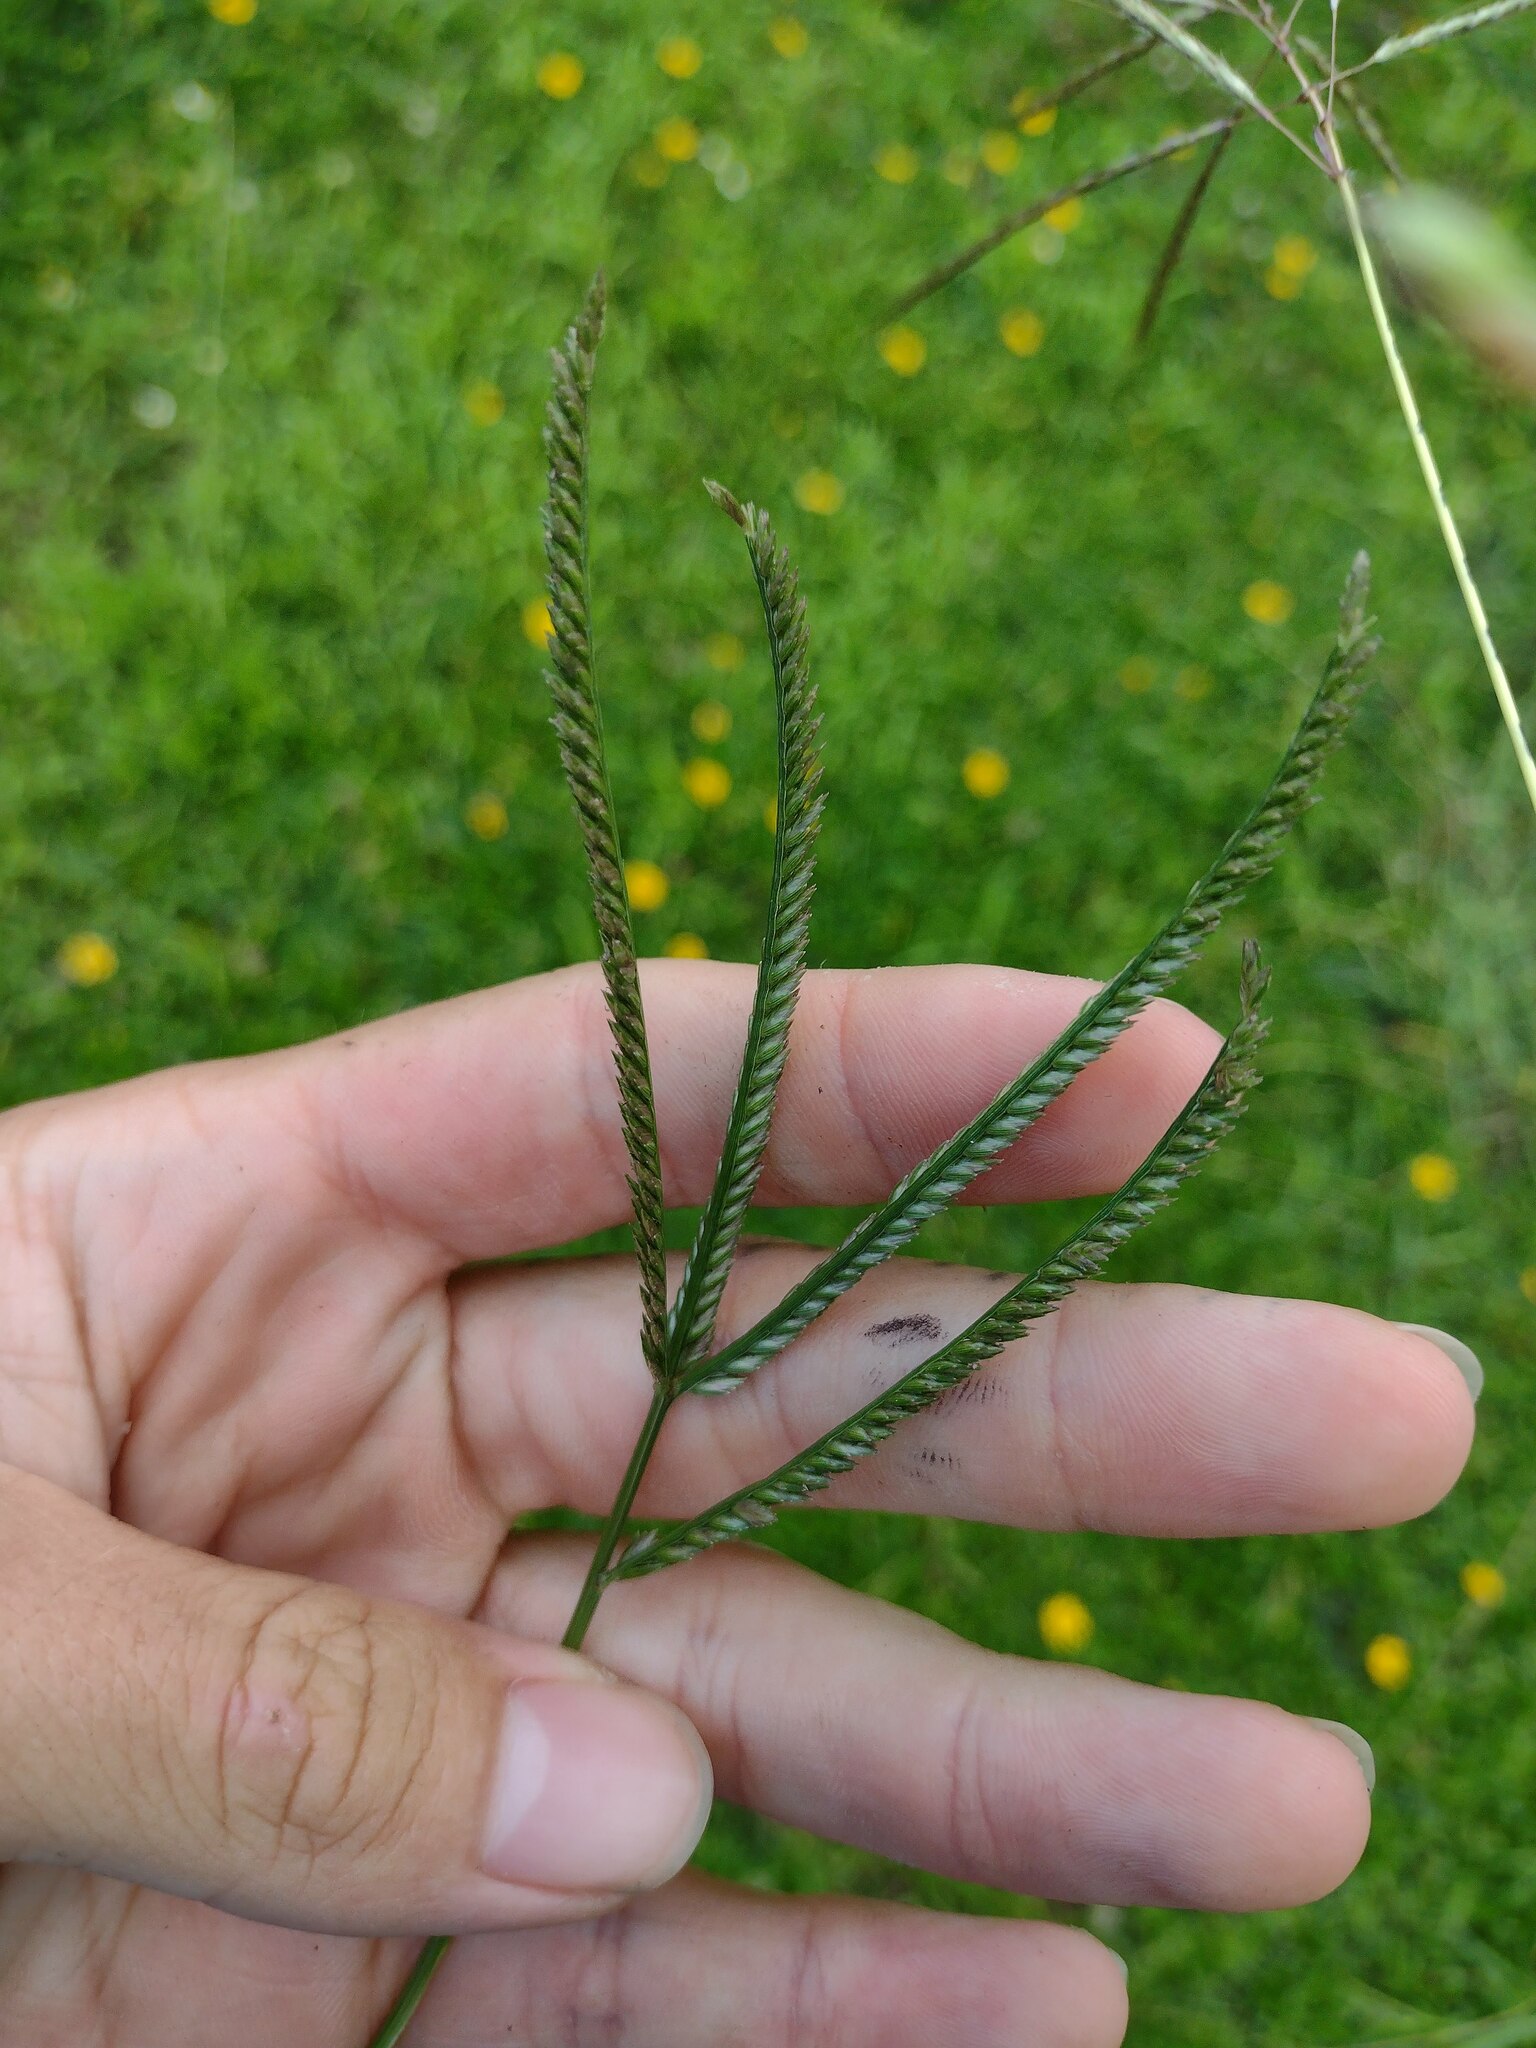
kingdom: Plantae
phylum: Tracheophyta
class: Liliopsida
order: Poales
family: Poaceae
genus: Eleusine
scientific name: Eleusine indica
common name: Yard-grass
